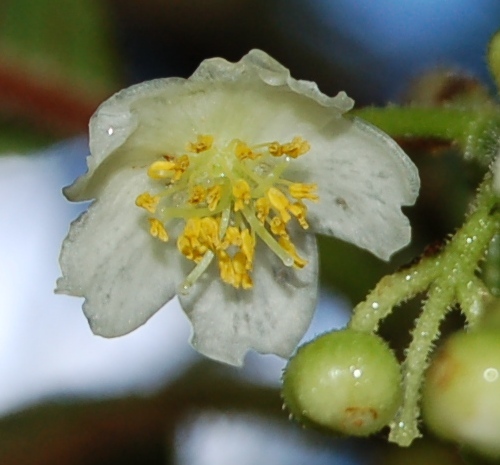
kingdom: Plantae
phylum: Tracheophyta
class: Magnoliopsida
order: Ericales
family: Actinidiaceae
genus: Saurauia
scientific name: Saurauia oreophila
